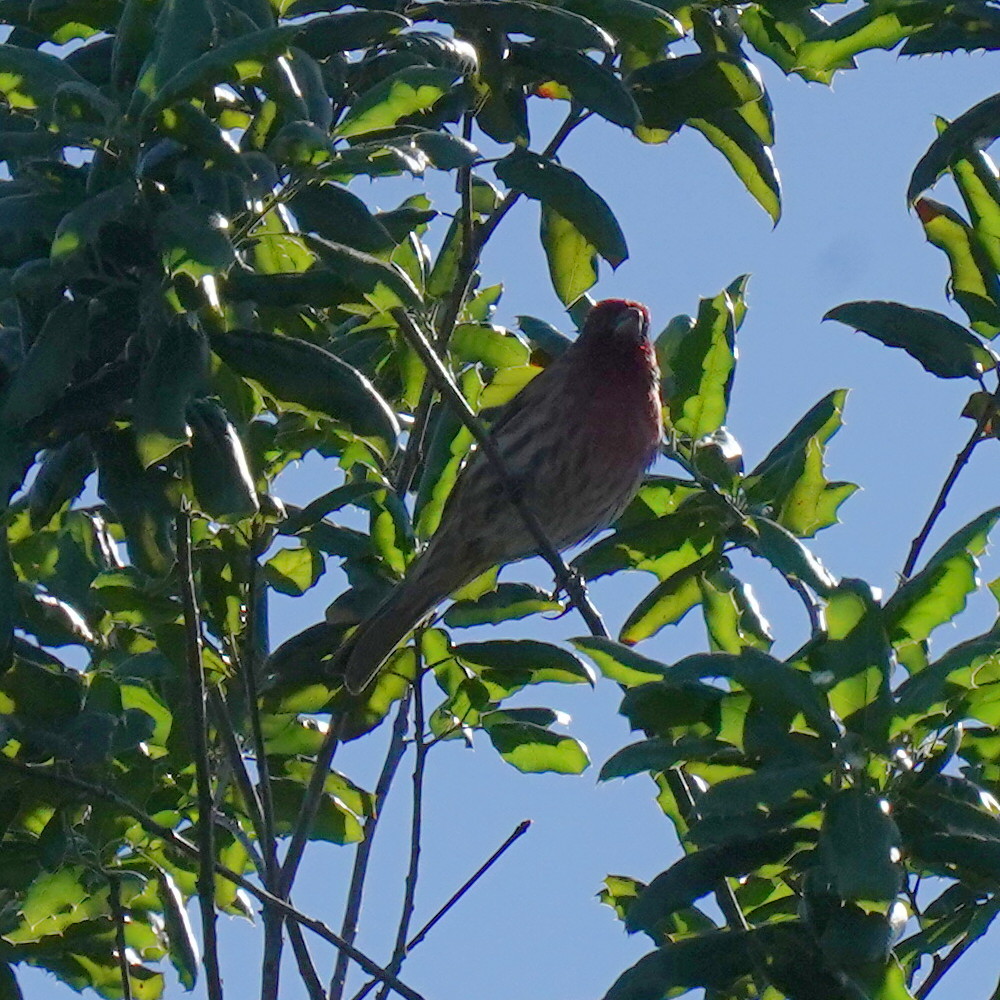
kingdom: Animalia
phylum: Chordata
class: Aves
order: Passeriformes
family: Fringillidae
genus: Haemorhous
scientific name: Haemorhous mexicanus
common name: House finch
